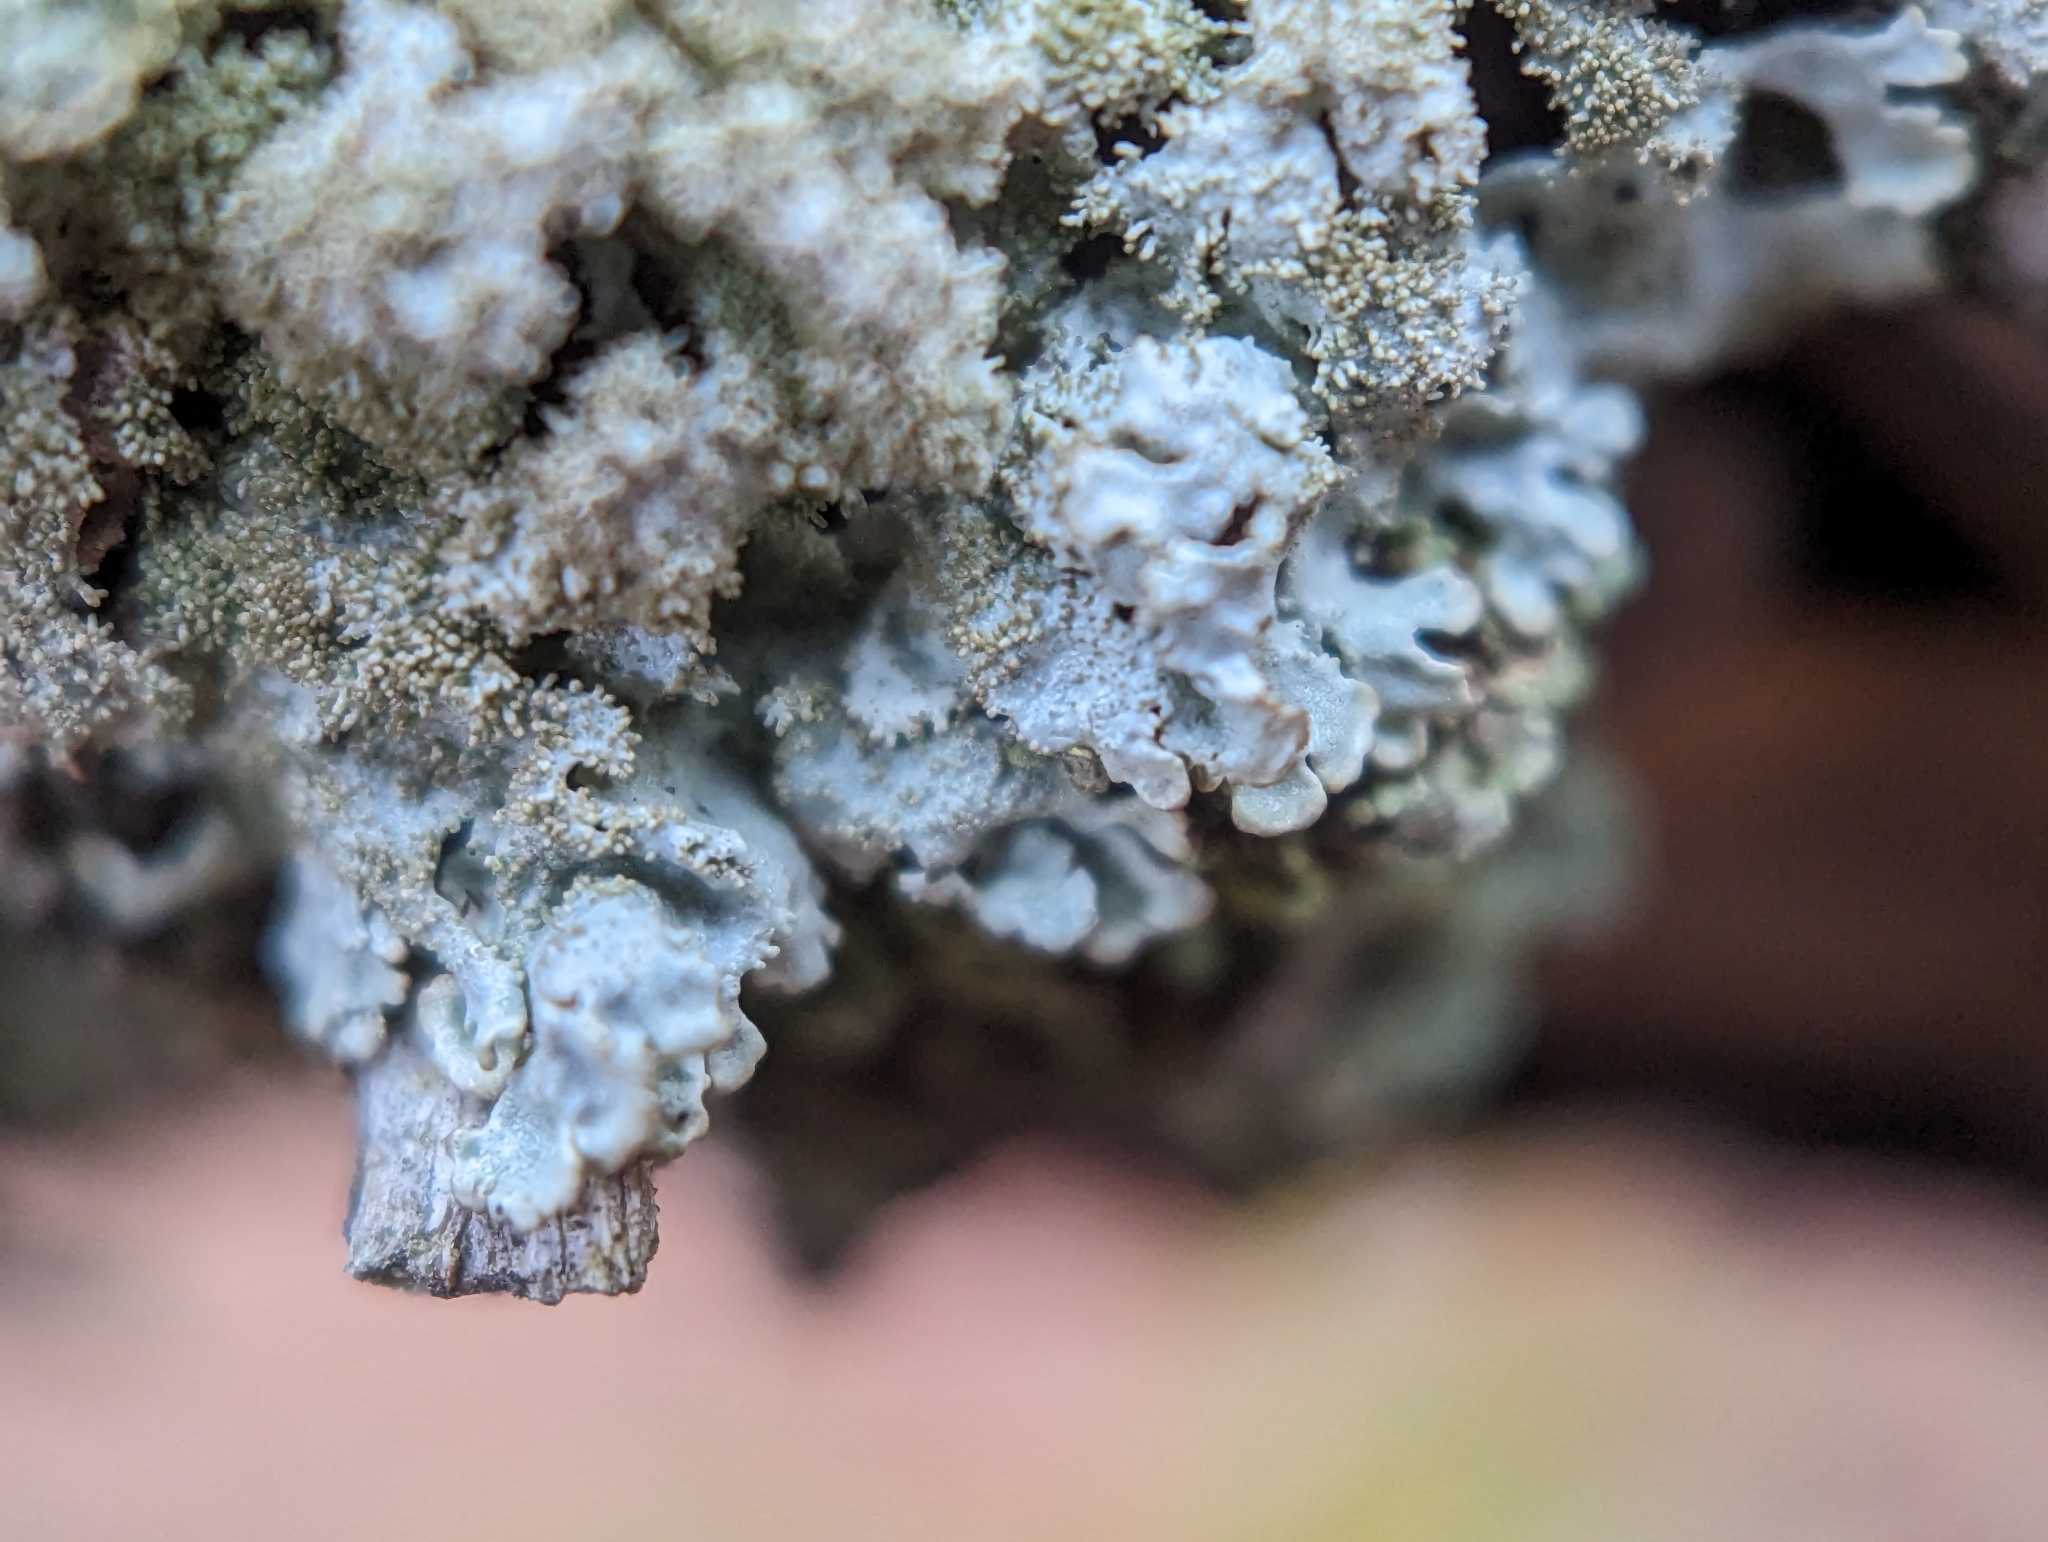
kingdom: Fungi
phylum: Ascomycota
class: Lecanoromycetes
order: Lecanorales
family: Parmeliaceae
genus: Imshaugia
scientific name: Imshaugia aleurites
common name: Salted starburst lichen
